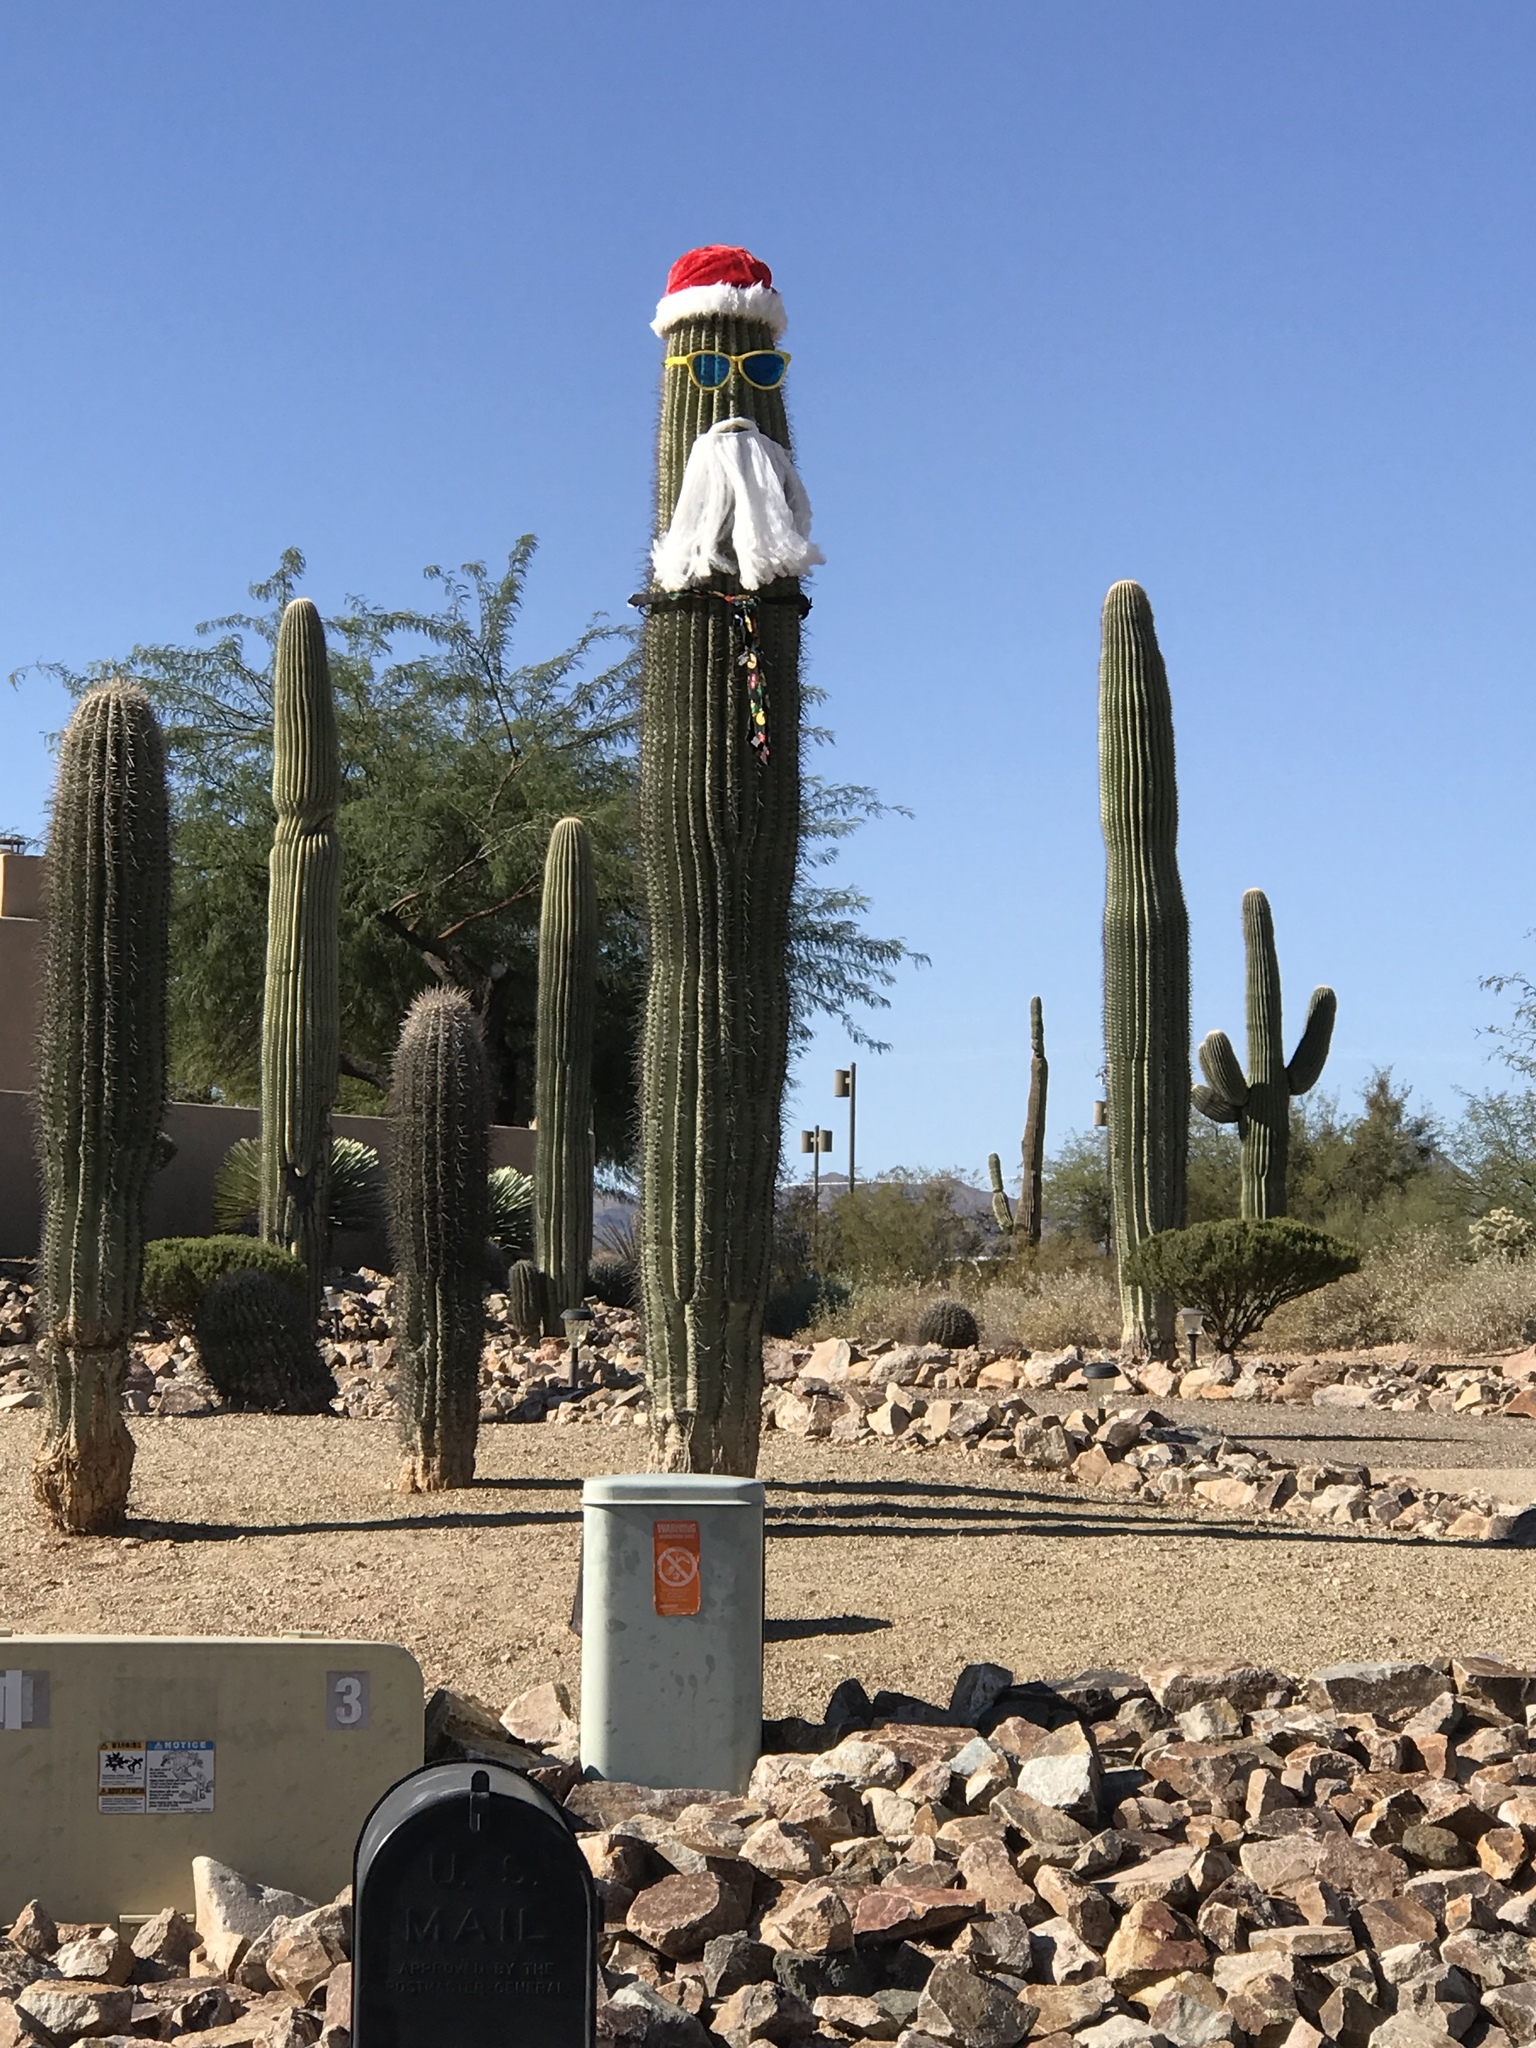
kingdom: Plantae
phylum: Tracheophyta
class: Magnoliopsida
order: Caryophyllales
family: Cactaceae
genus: Carnegiea
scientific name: Carnegiea gigantea
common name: Saguaro
